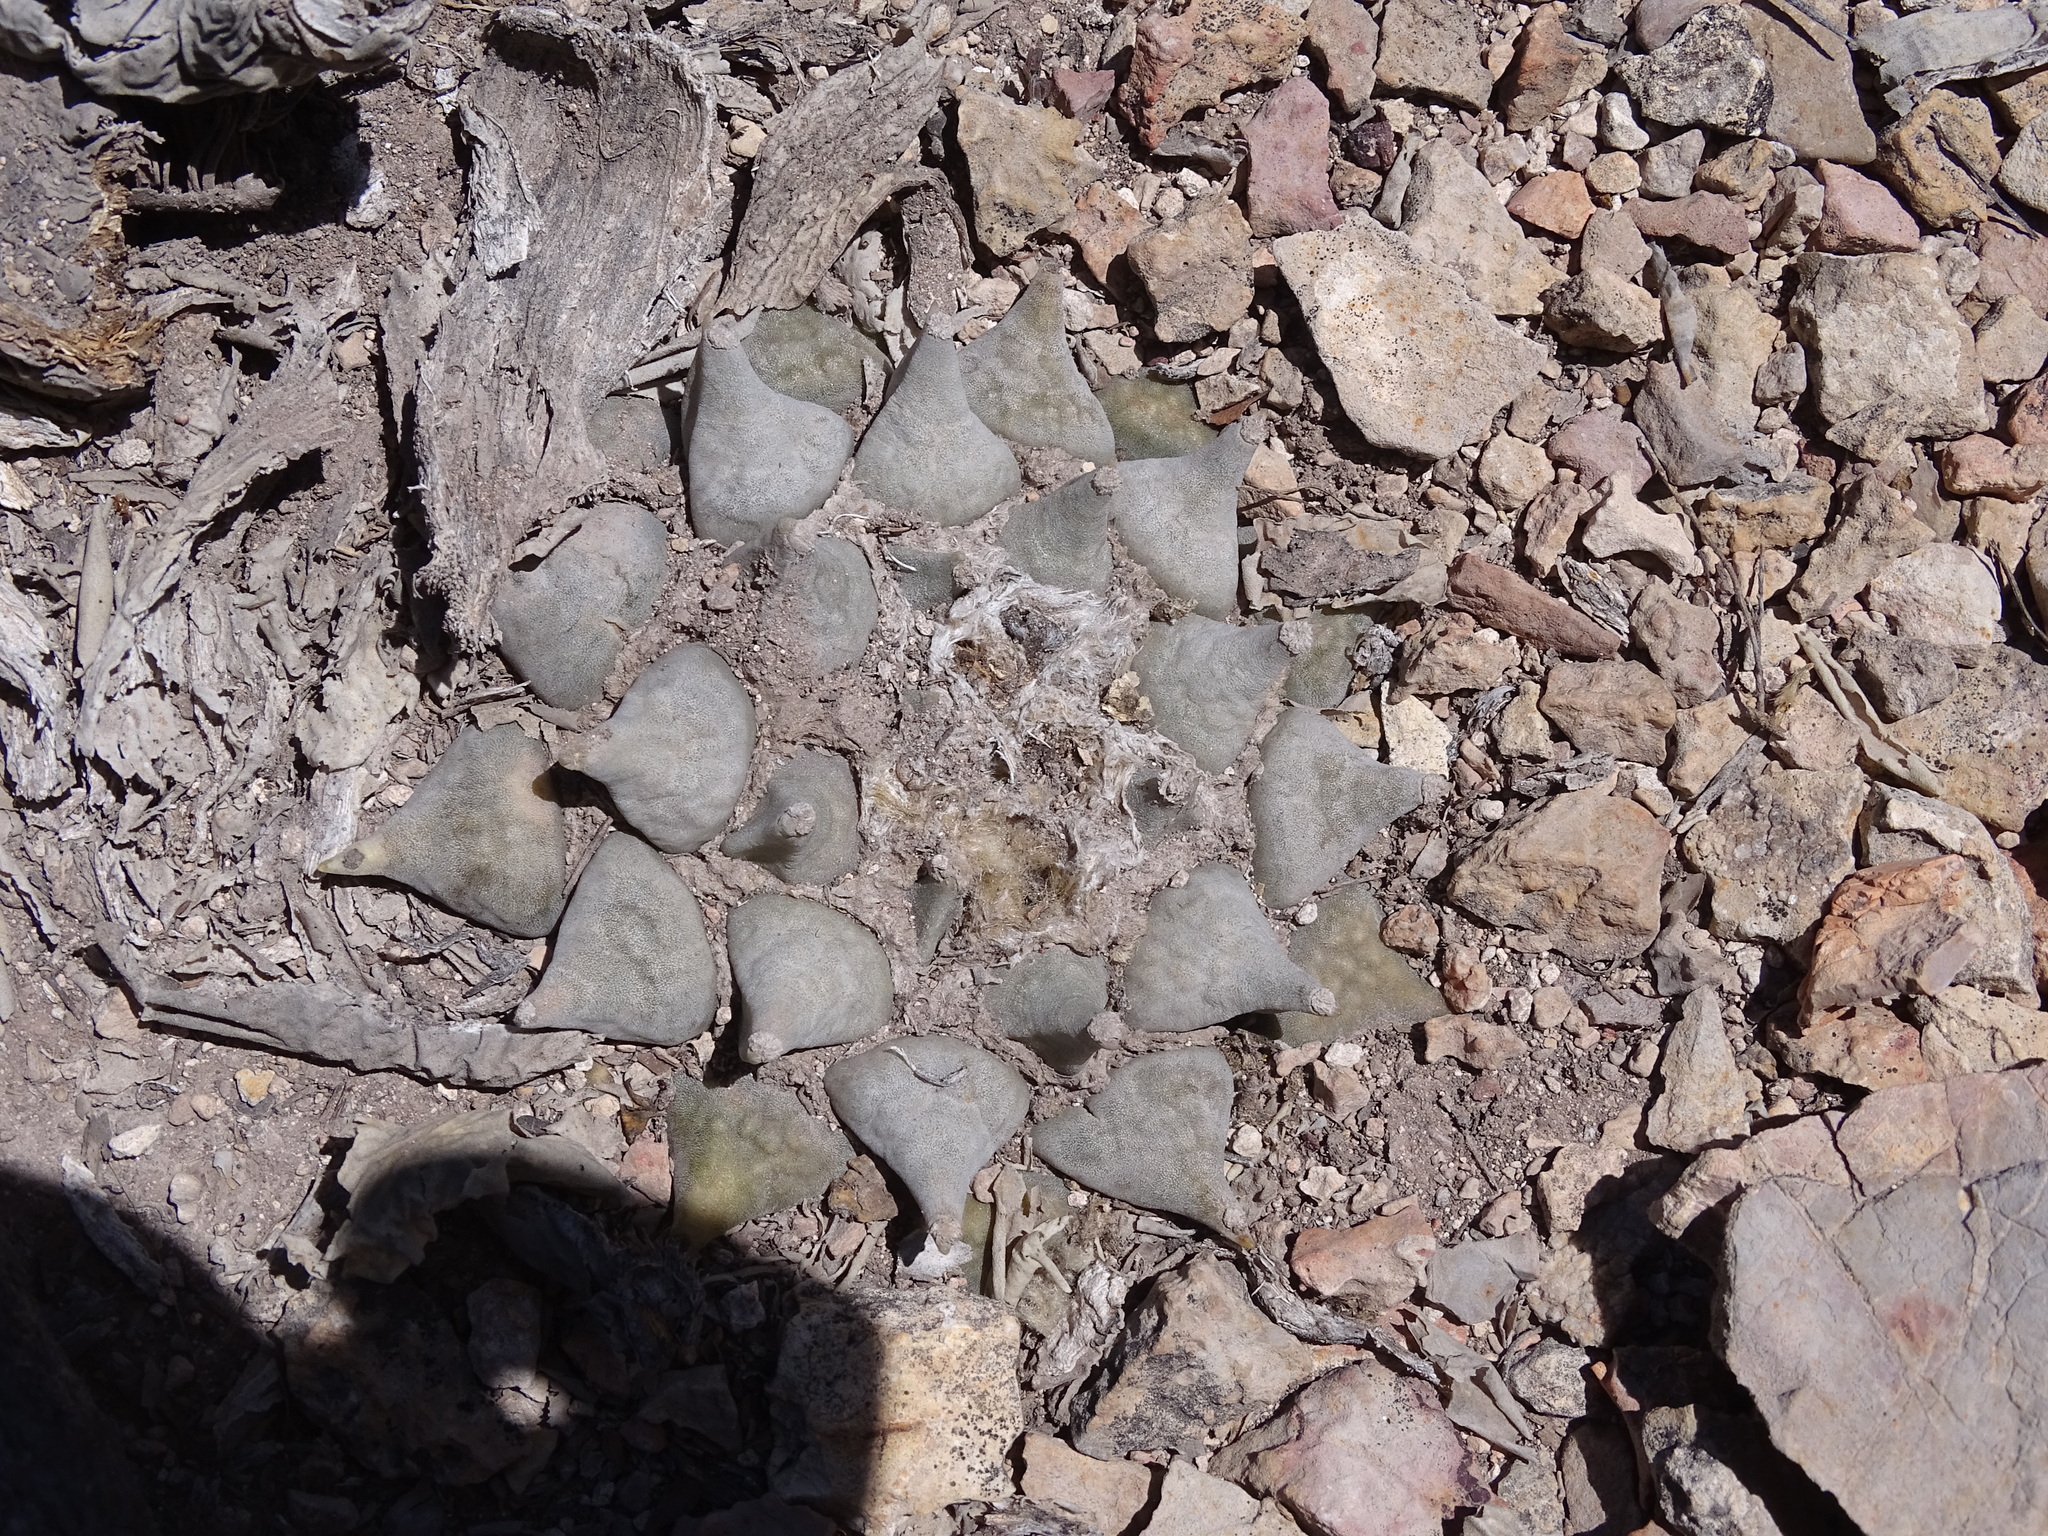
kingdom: Plantae
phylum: Tracheophyta
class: Magnoliopsida
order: Caryophyllales
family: Cactaceae
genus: Ariocarpus
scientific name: Ariocarpus retusus
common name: Seven stars
